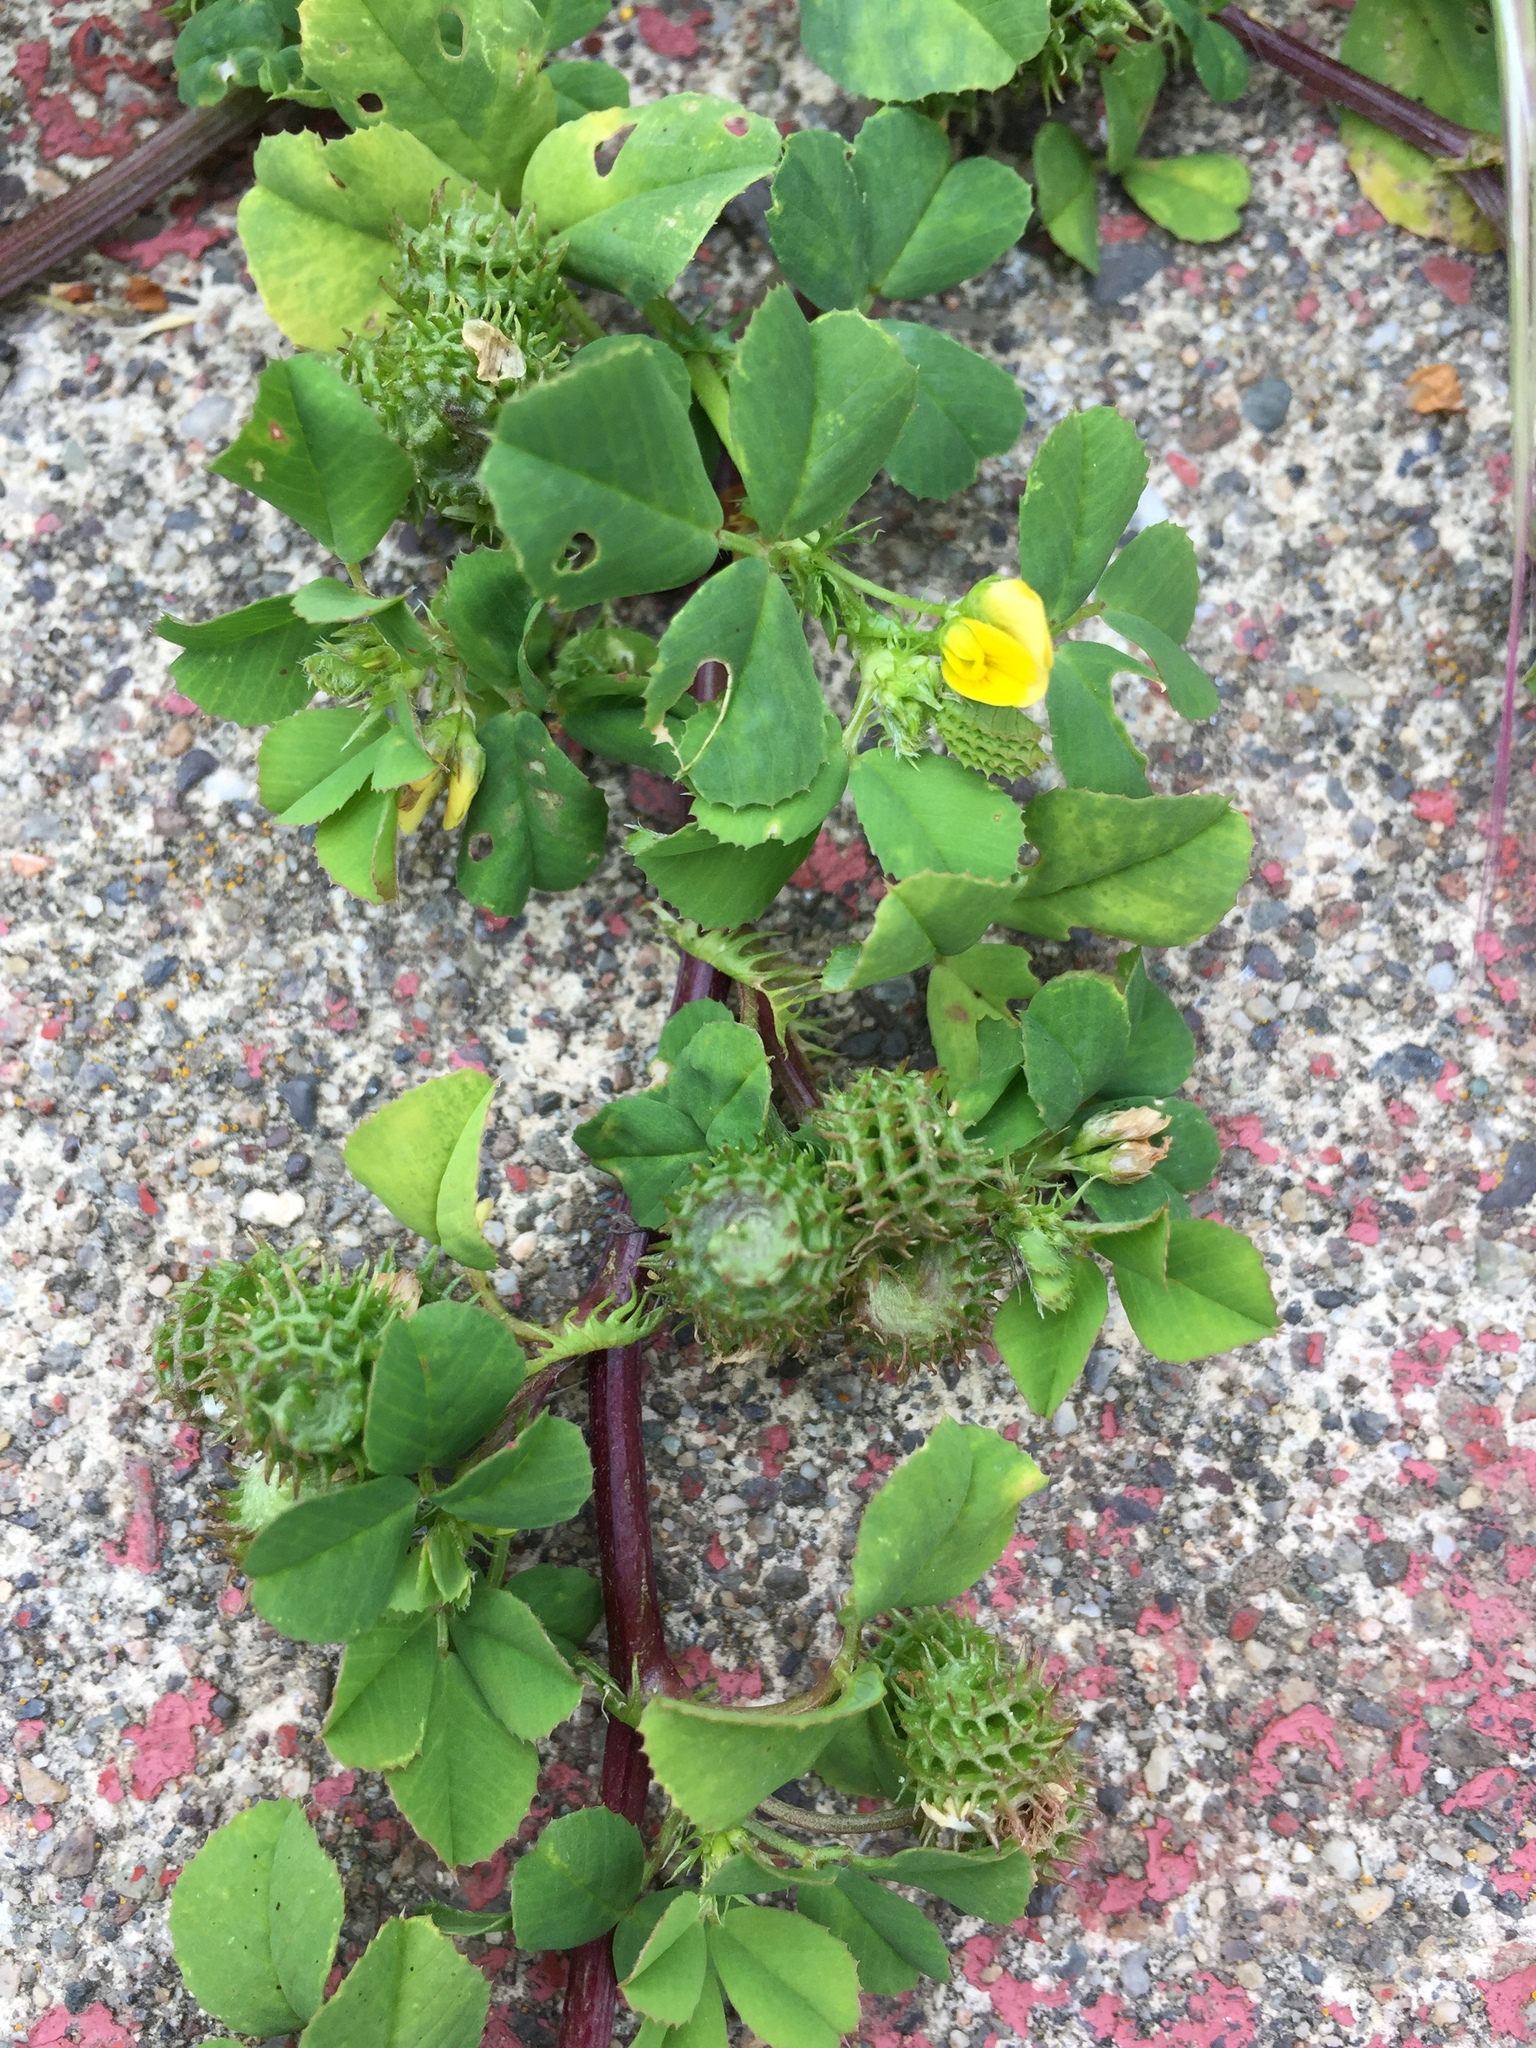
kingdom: Plantae
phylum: Tracheophyta
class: Magnoliopsida
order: Fabales
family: Fabaceae
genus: Medicago
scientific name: Medicago polymorpha
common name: Burclover
